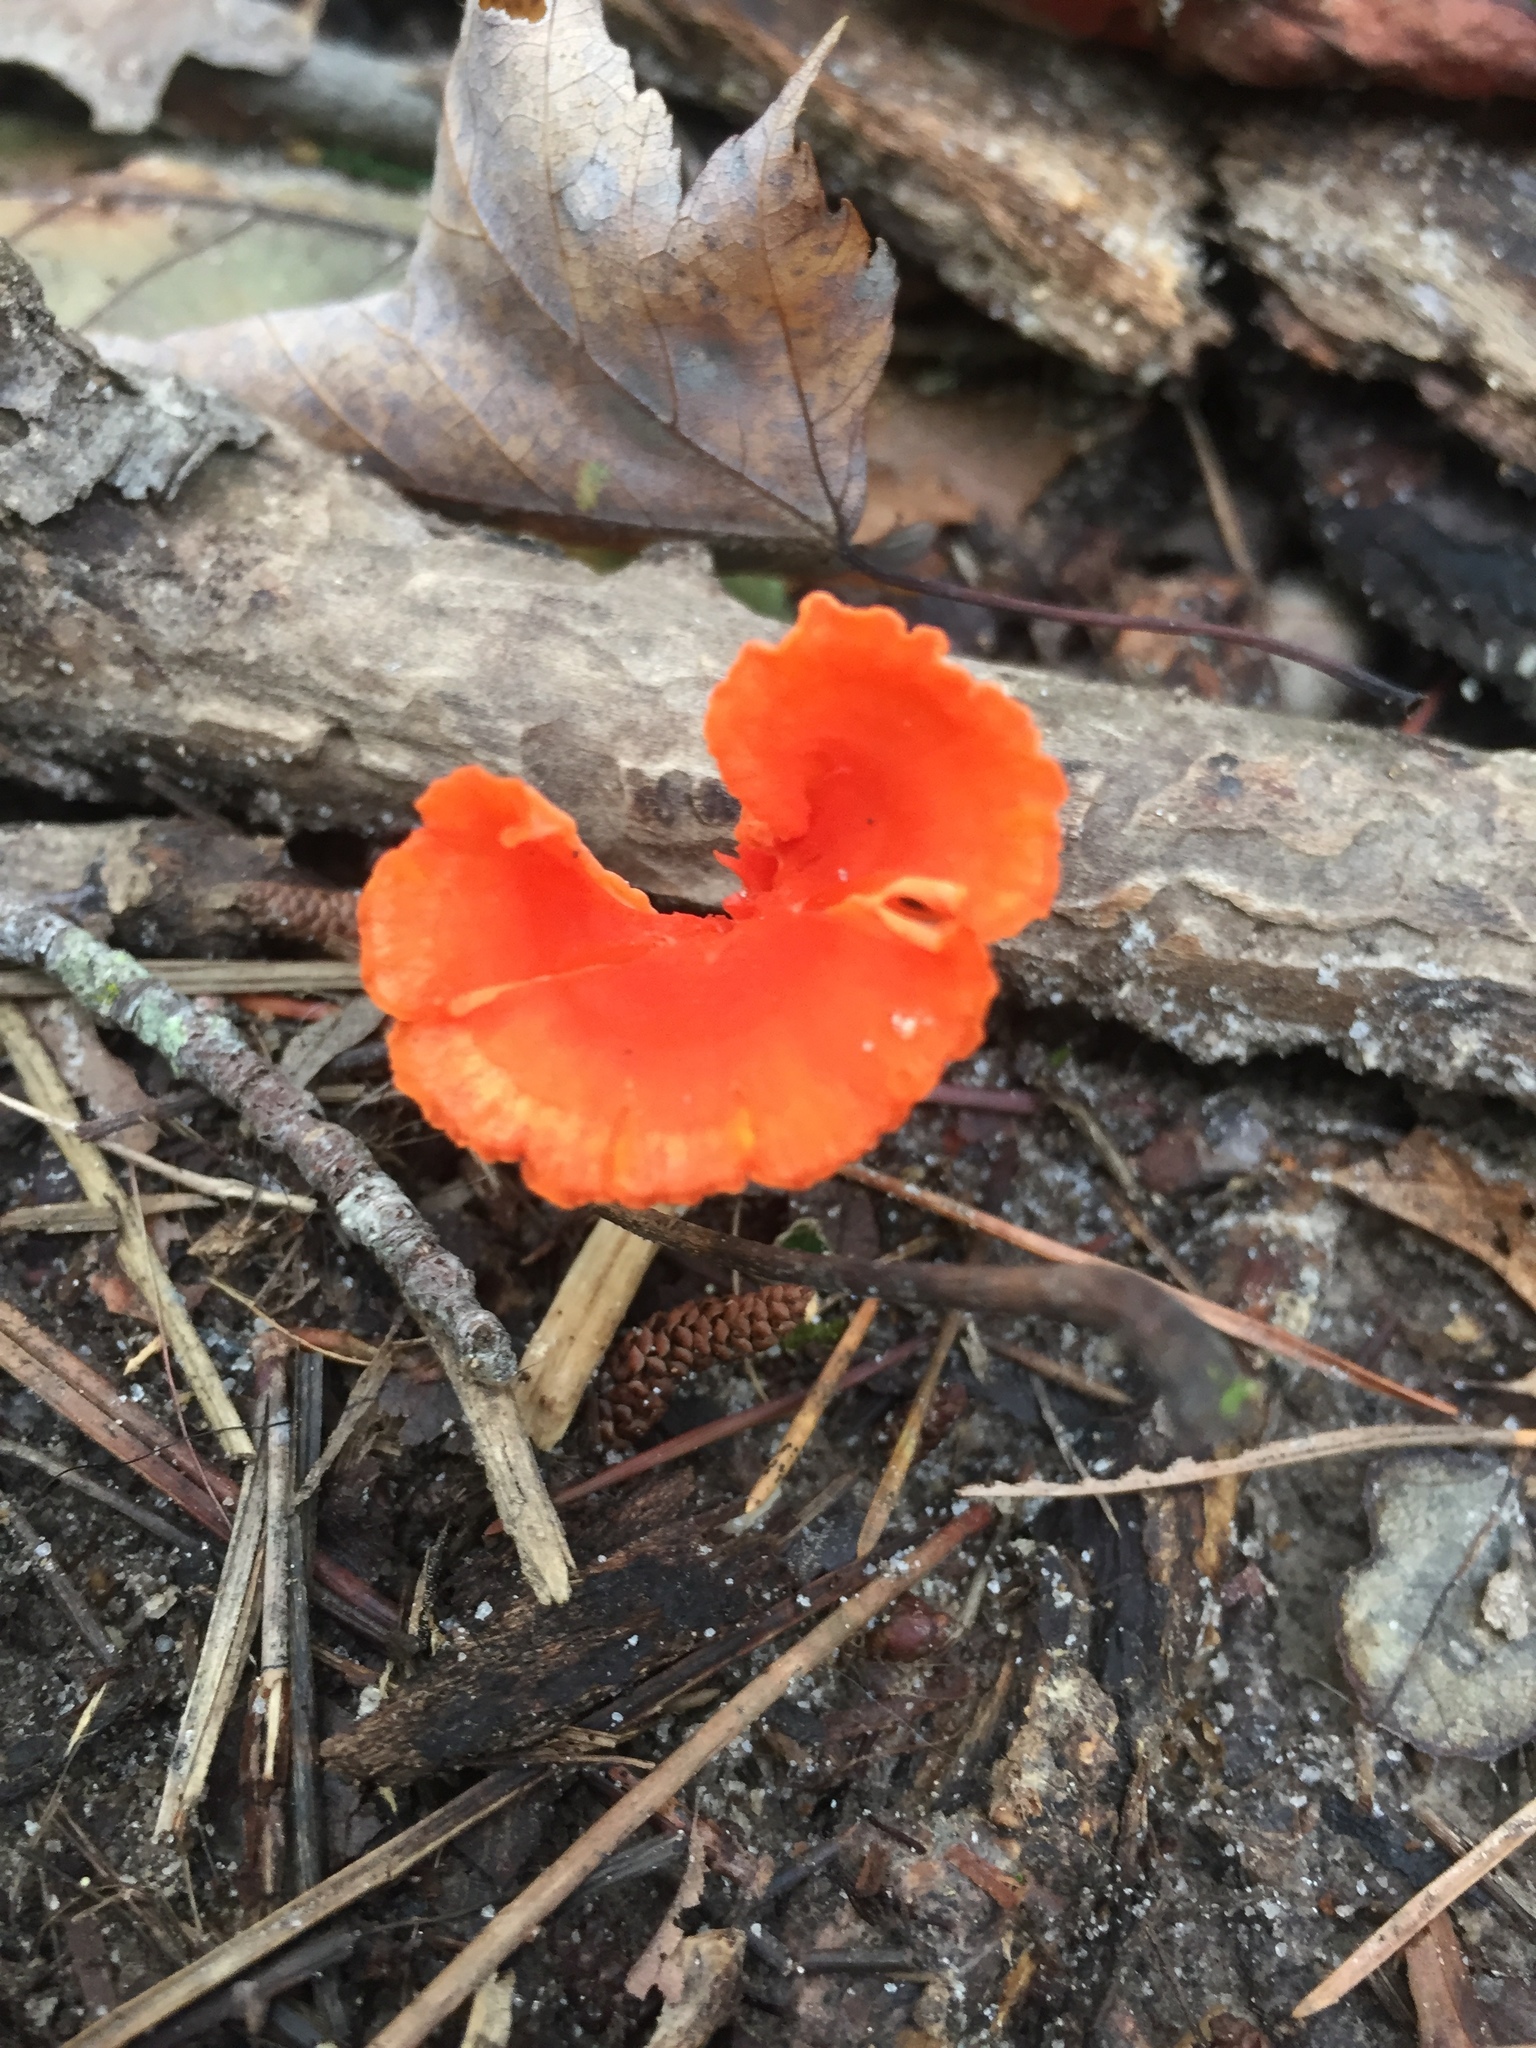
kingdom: Fungi
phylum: Basidiomycota
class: Agaricomycetes
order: Cantharellales
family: Hydnaceae
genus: Cantharellus
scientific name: Cantharellus cinnabarinus
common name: Cinnabar chanterelle
